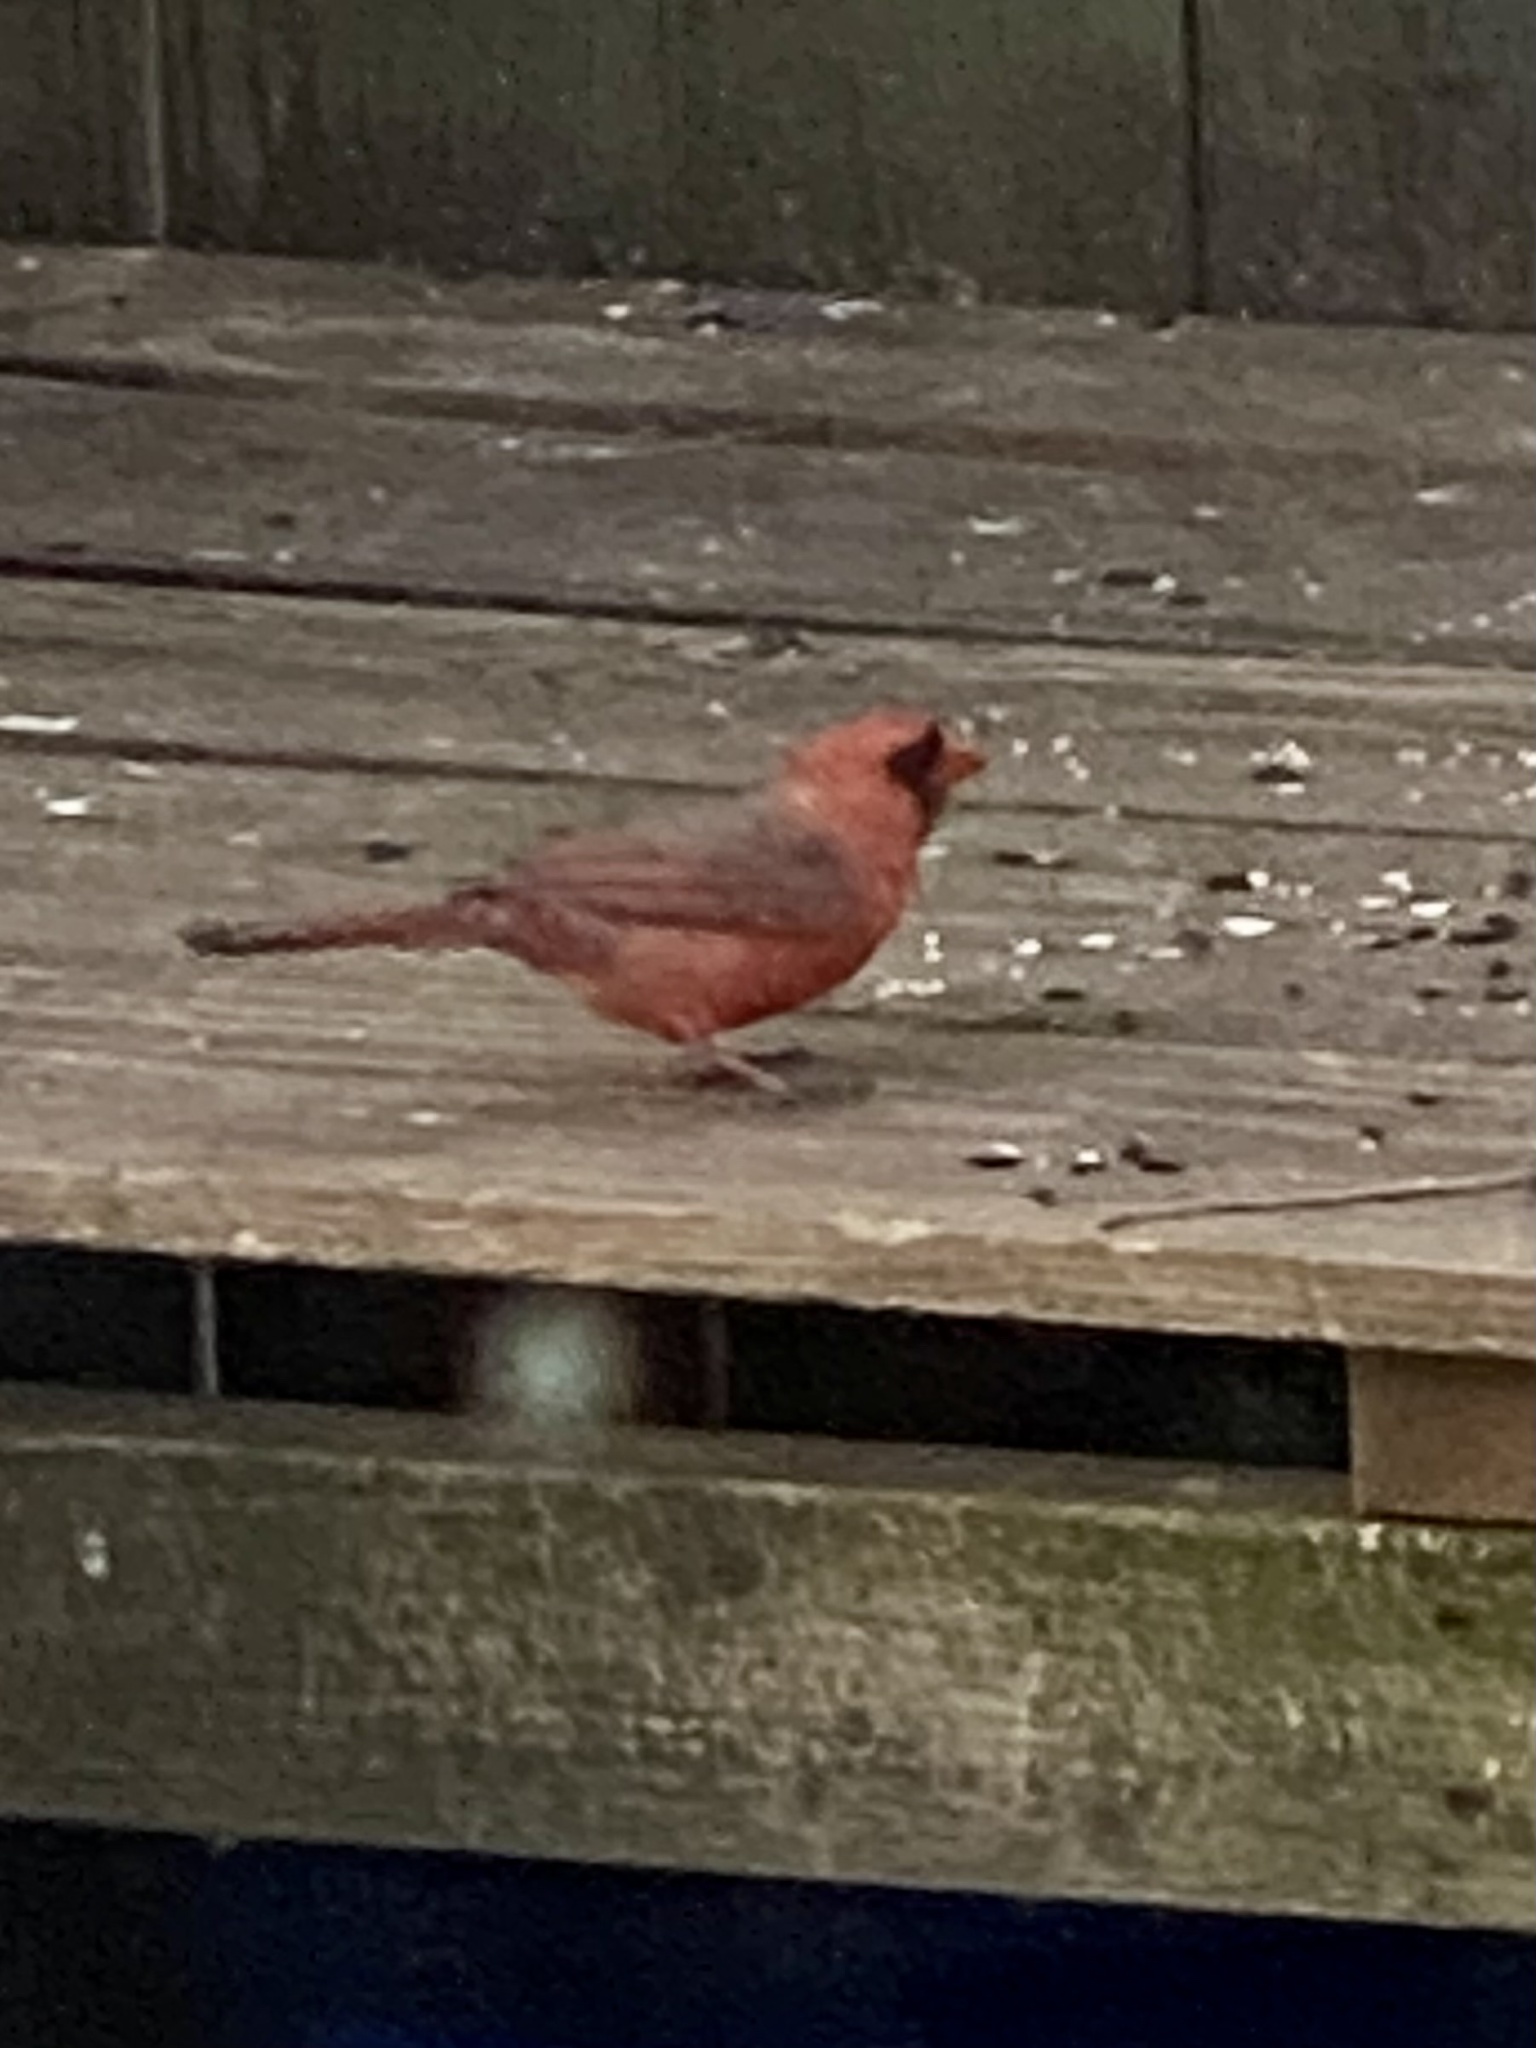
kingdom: Animalia
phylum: Chordata
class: Aves
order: Passeriformes
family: Cardinalidae
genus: Cardinalis
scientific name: Cardinalis cardinalis
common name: Northern cardinal
